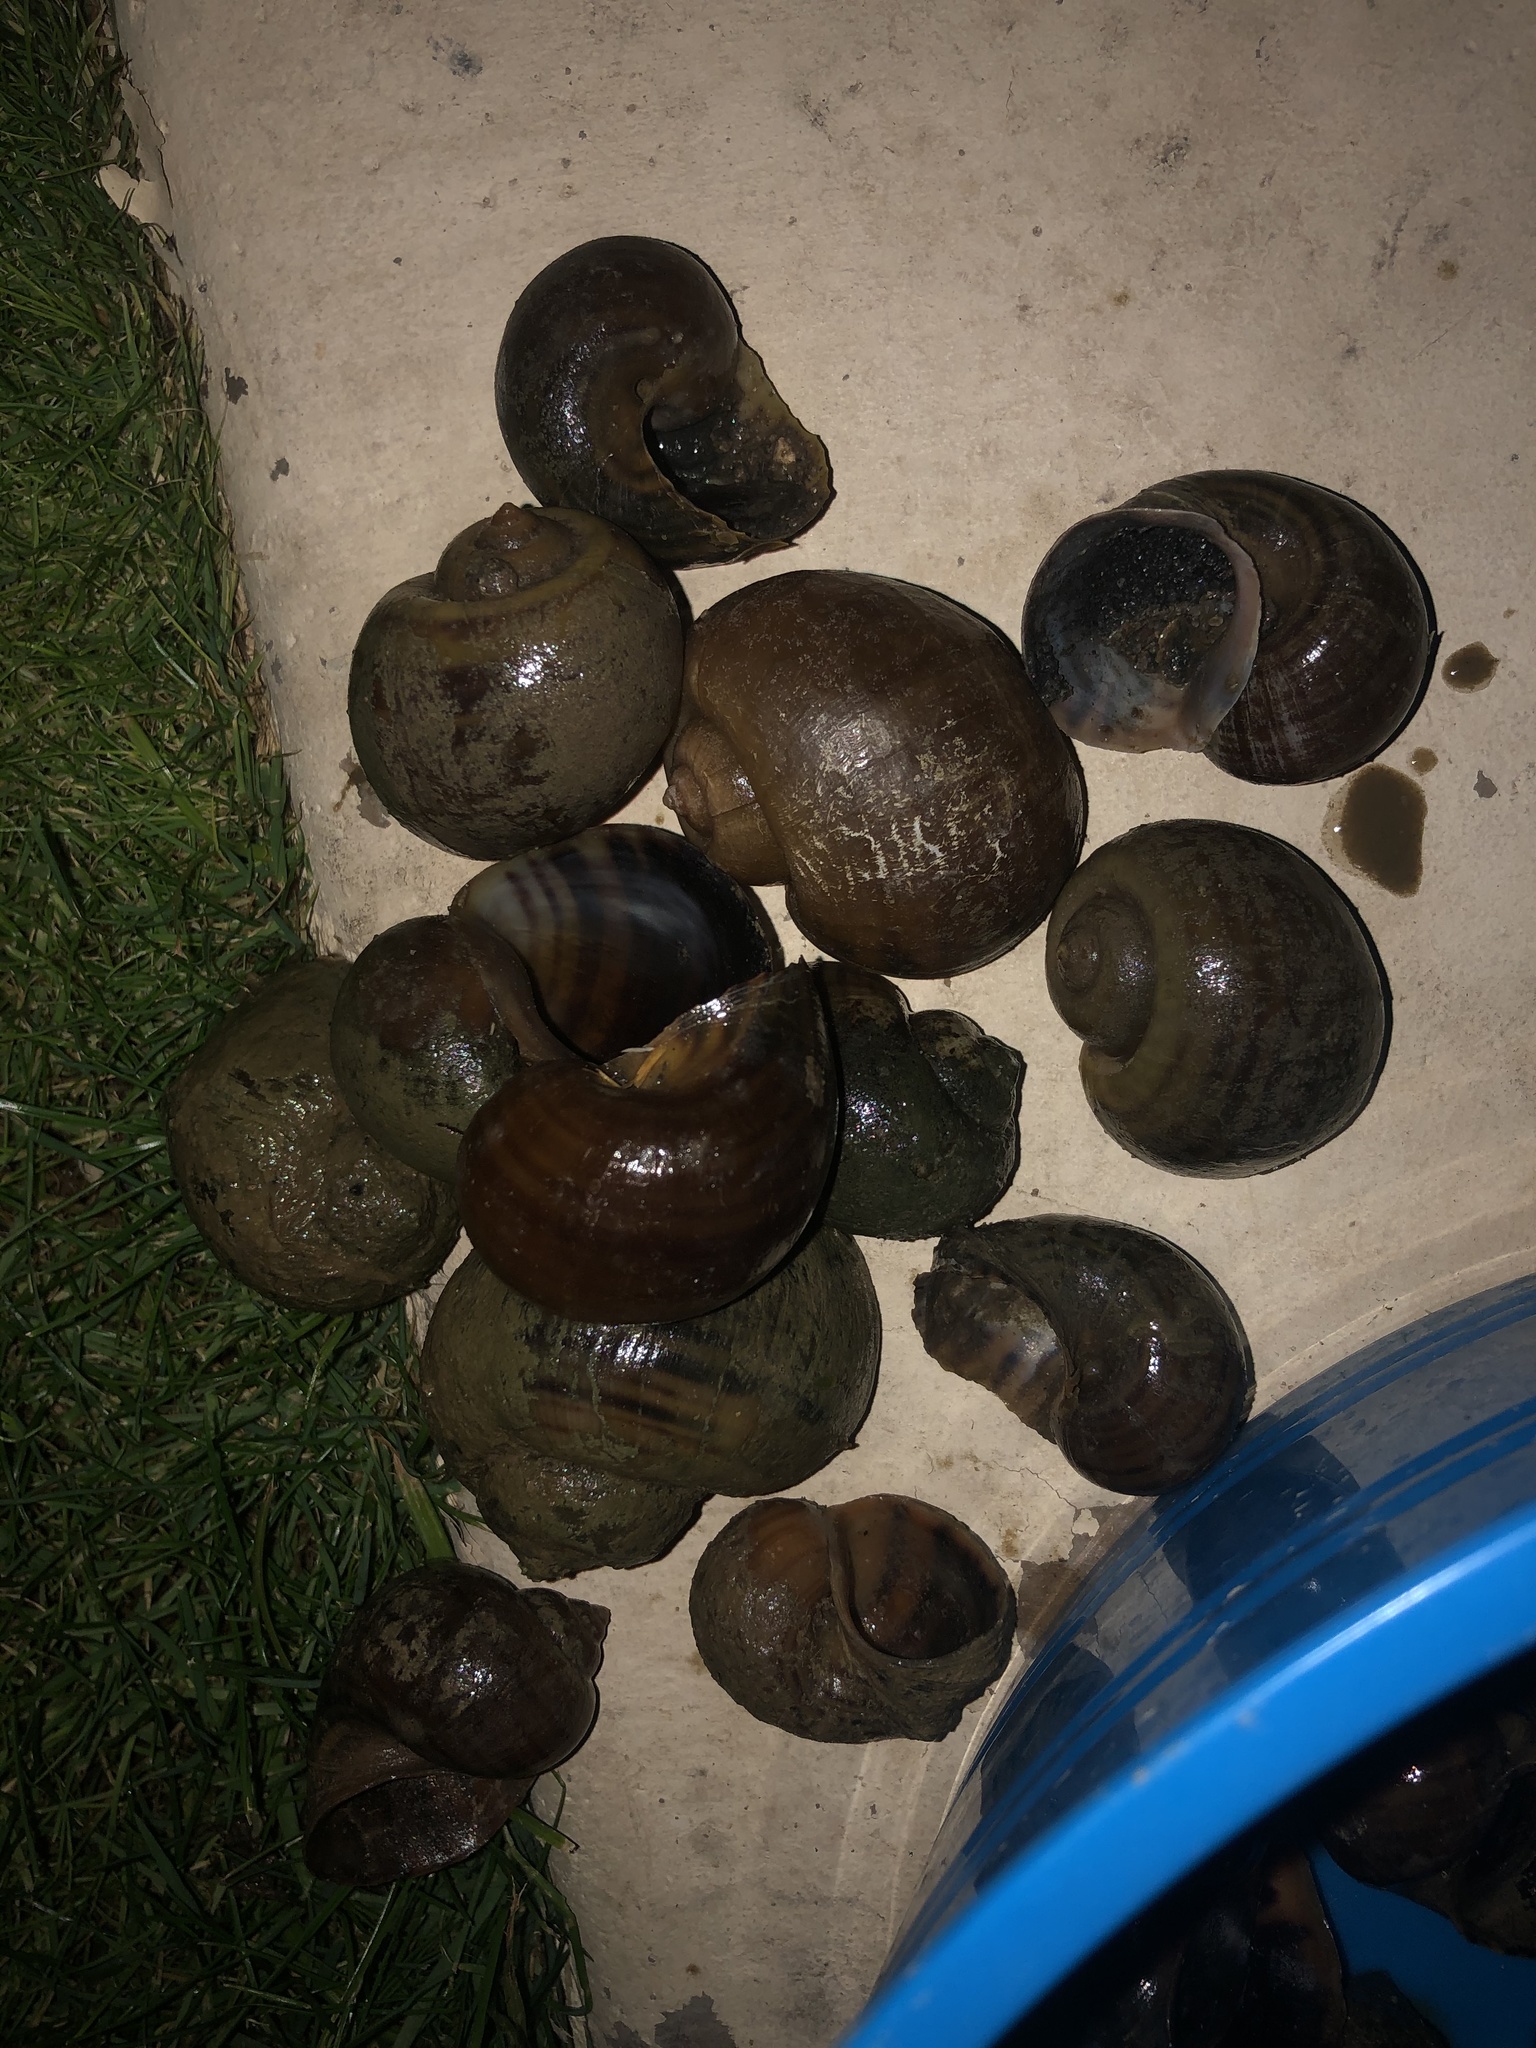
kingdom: Animalia
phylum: Mollusca
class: Gastropoda
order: Architaenioglossa
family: Ampullariidae
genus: Pomacea
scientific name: Pomacea canaliculata
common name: Channeled applesnail
